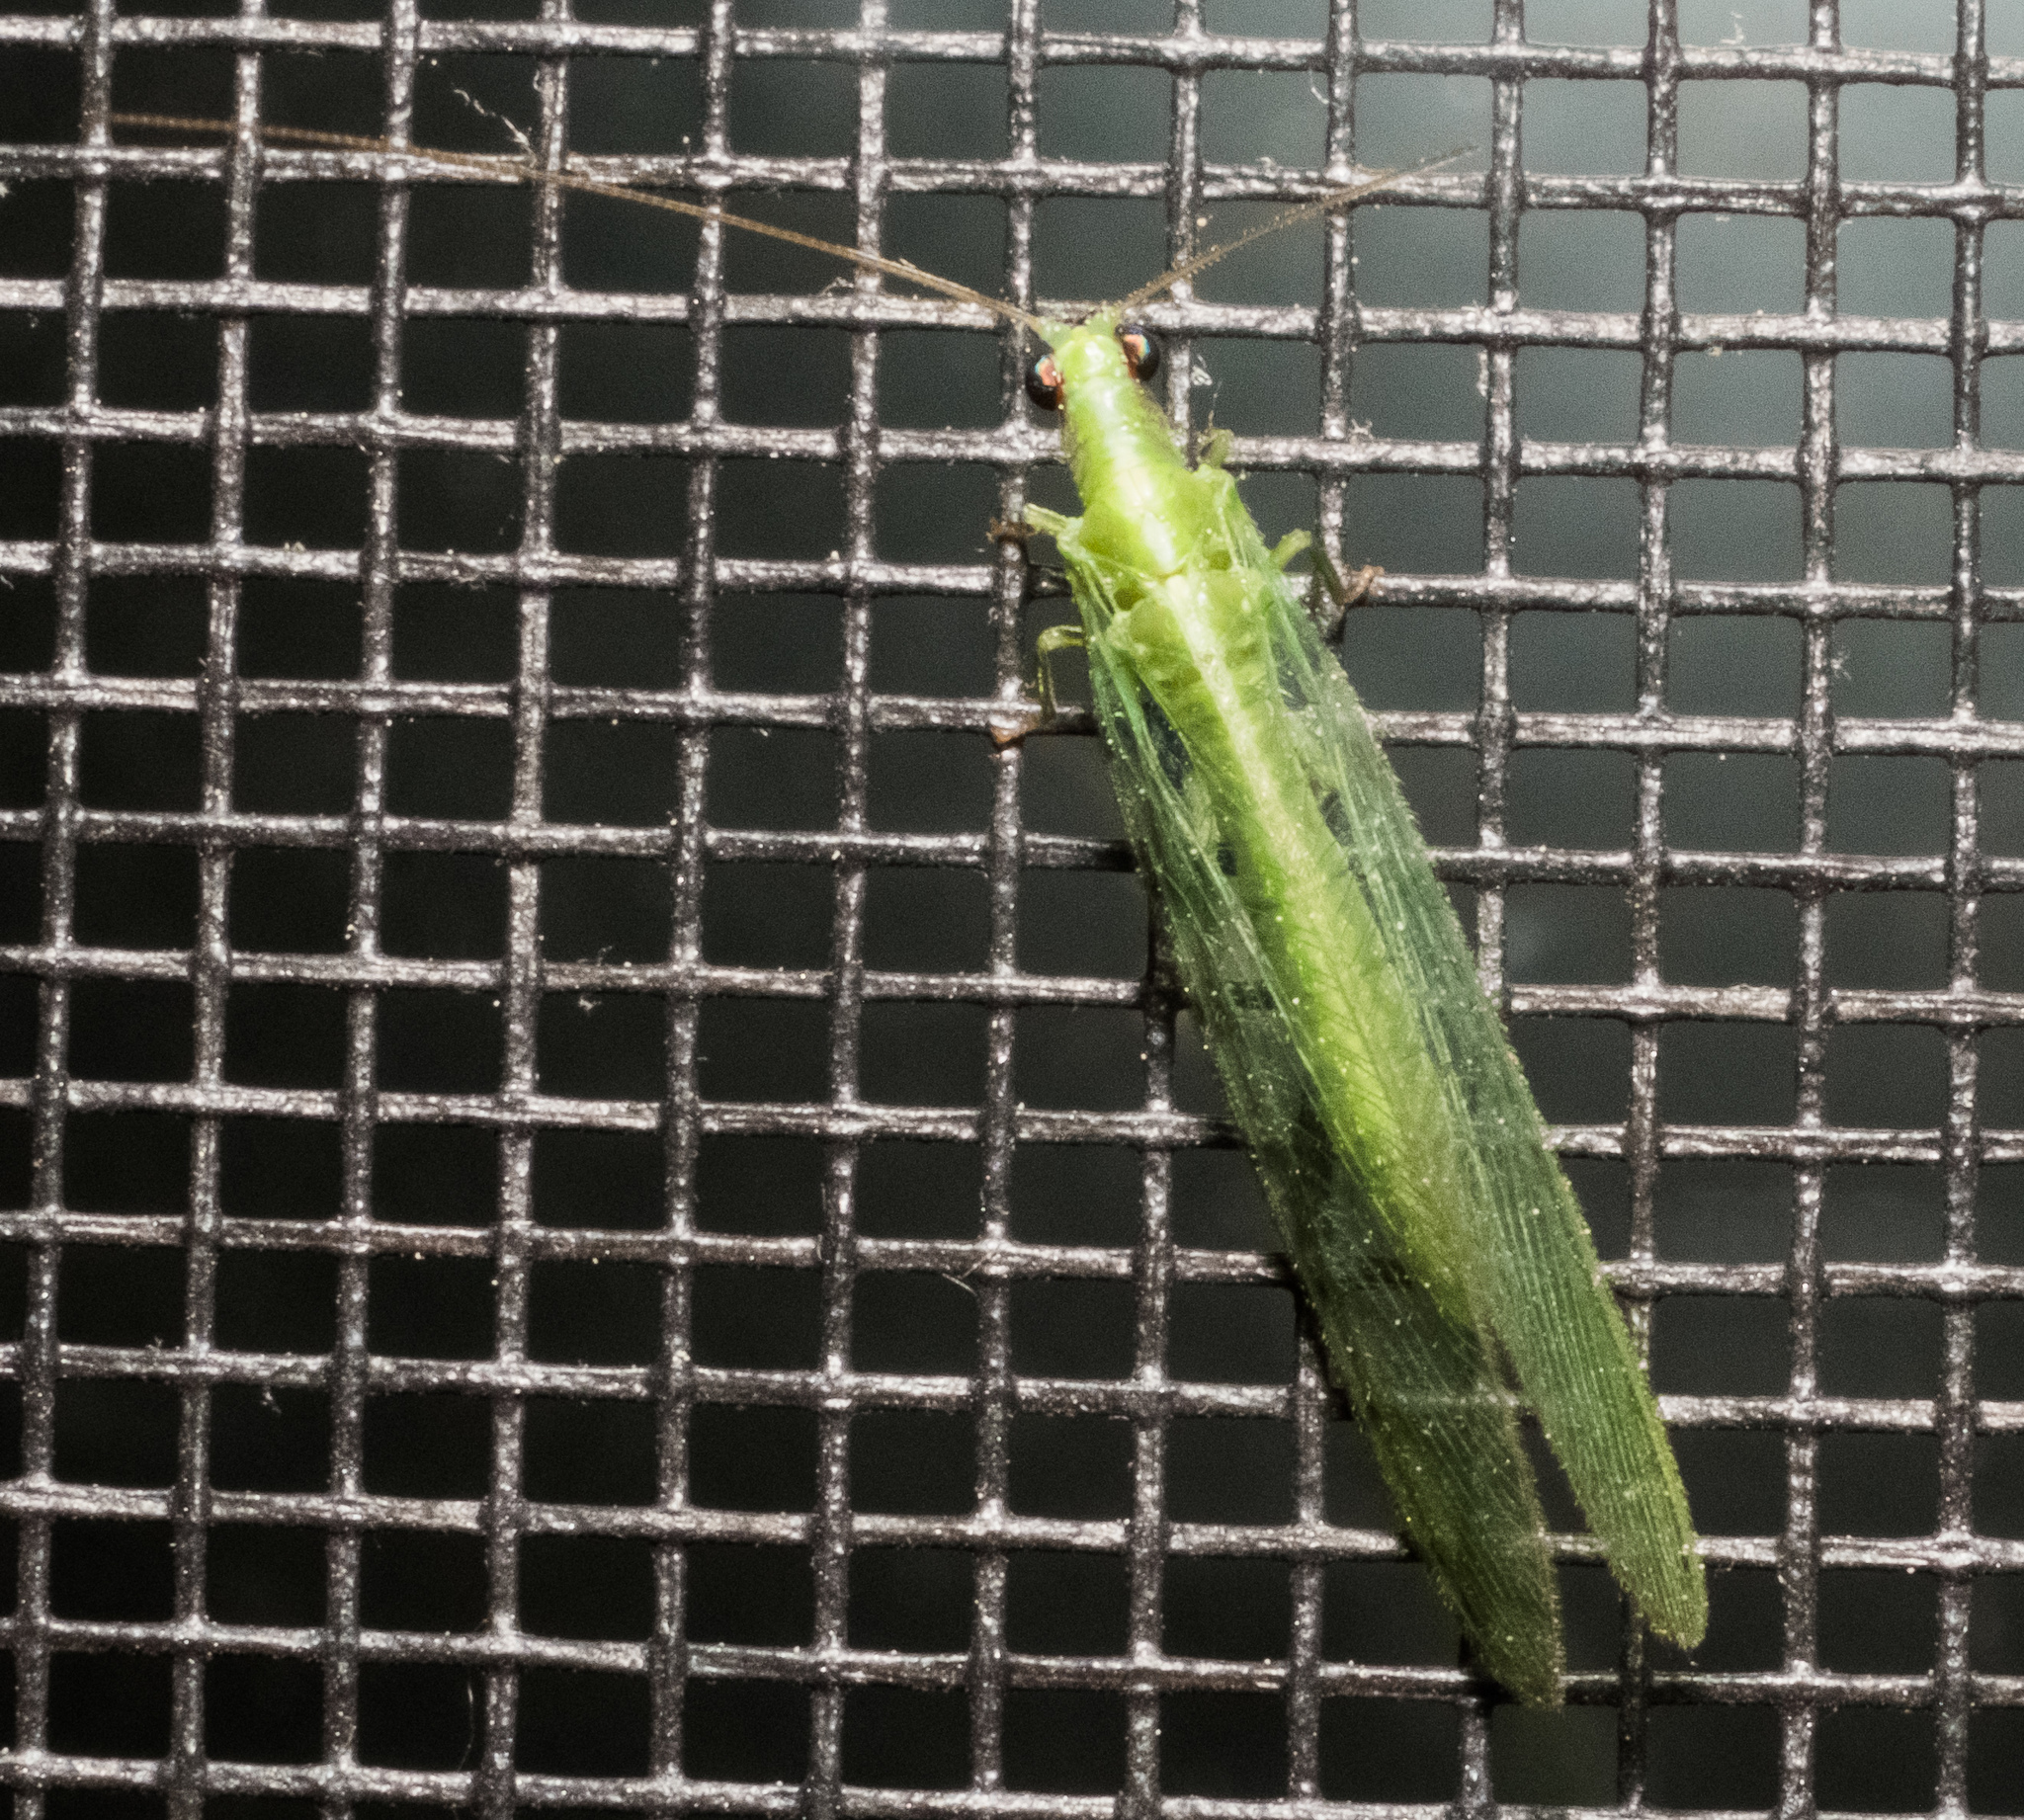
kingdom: Animalia
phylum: Arthropoda
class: Insecta
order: Neuroptera
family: Chrysopidae
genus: Chrysoperla
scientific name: Chrysoperla
